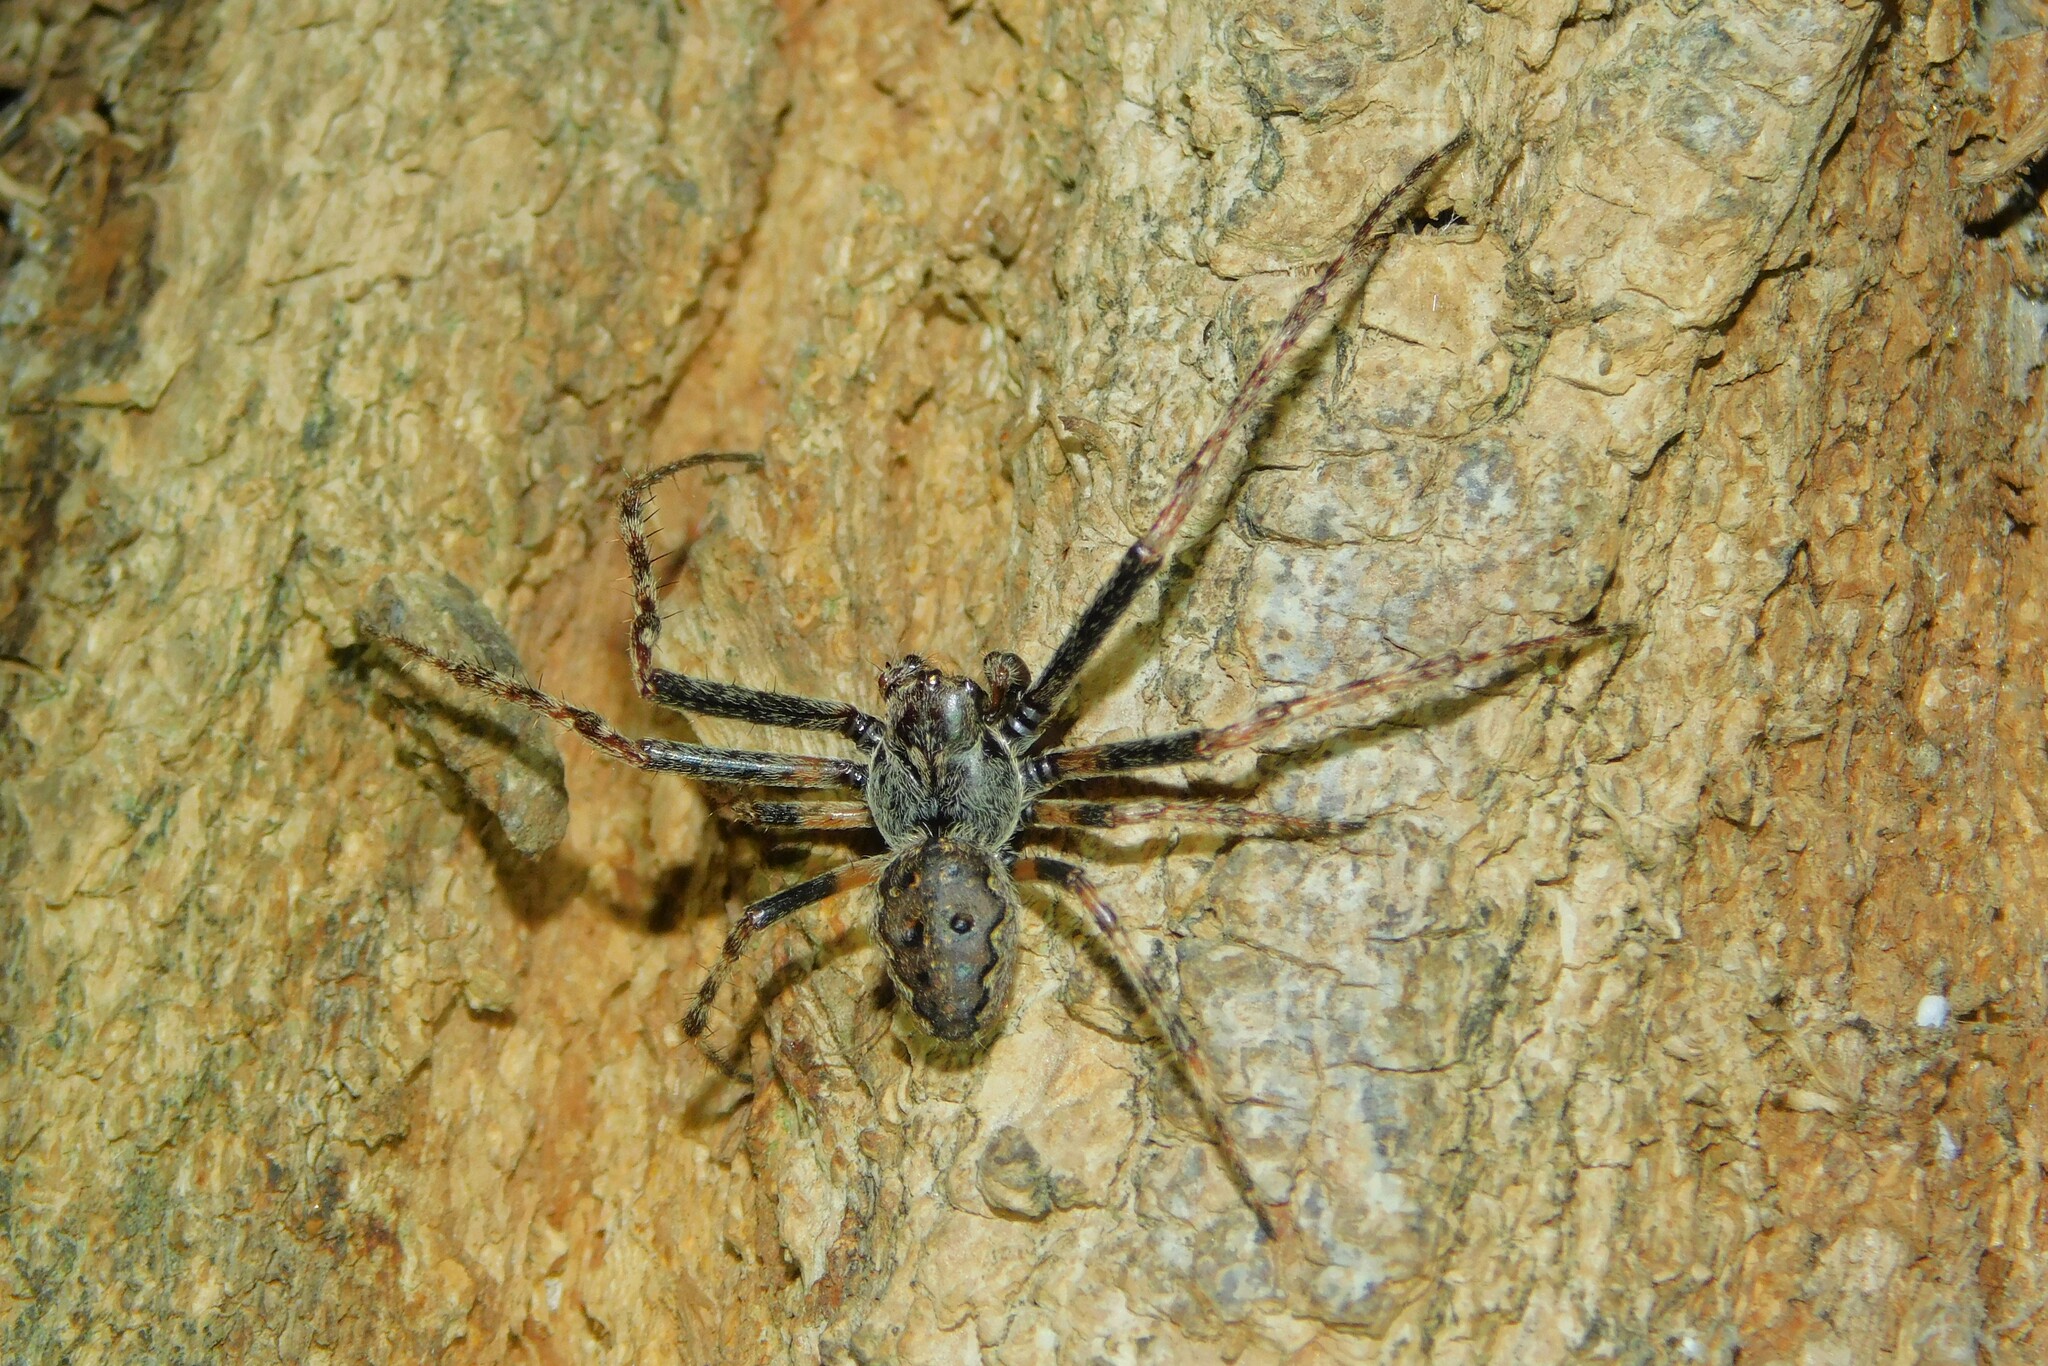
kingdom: Animalia
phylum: Arthropoda
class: Arachnida
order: Araneae
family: Araneidae
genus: Nuctenea
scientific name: Nuctenea umbratica
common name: Toad spider
